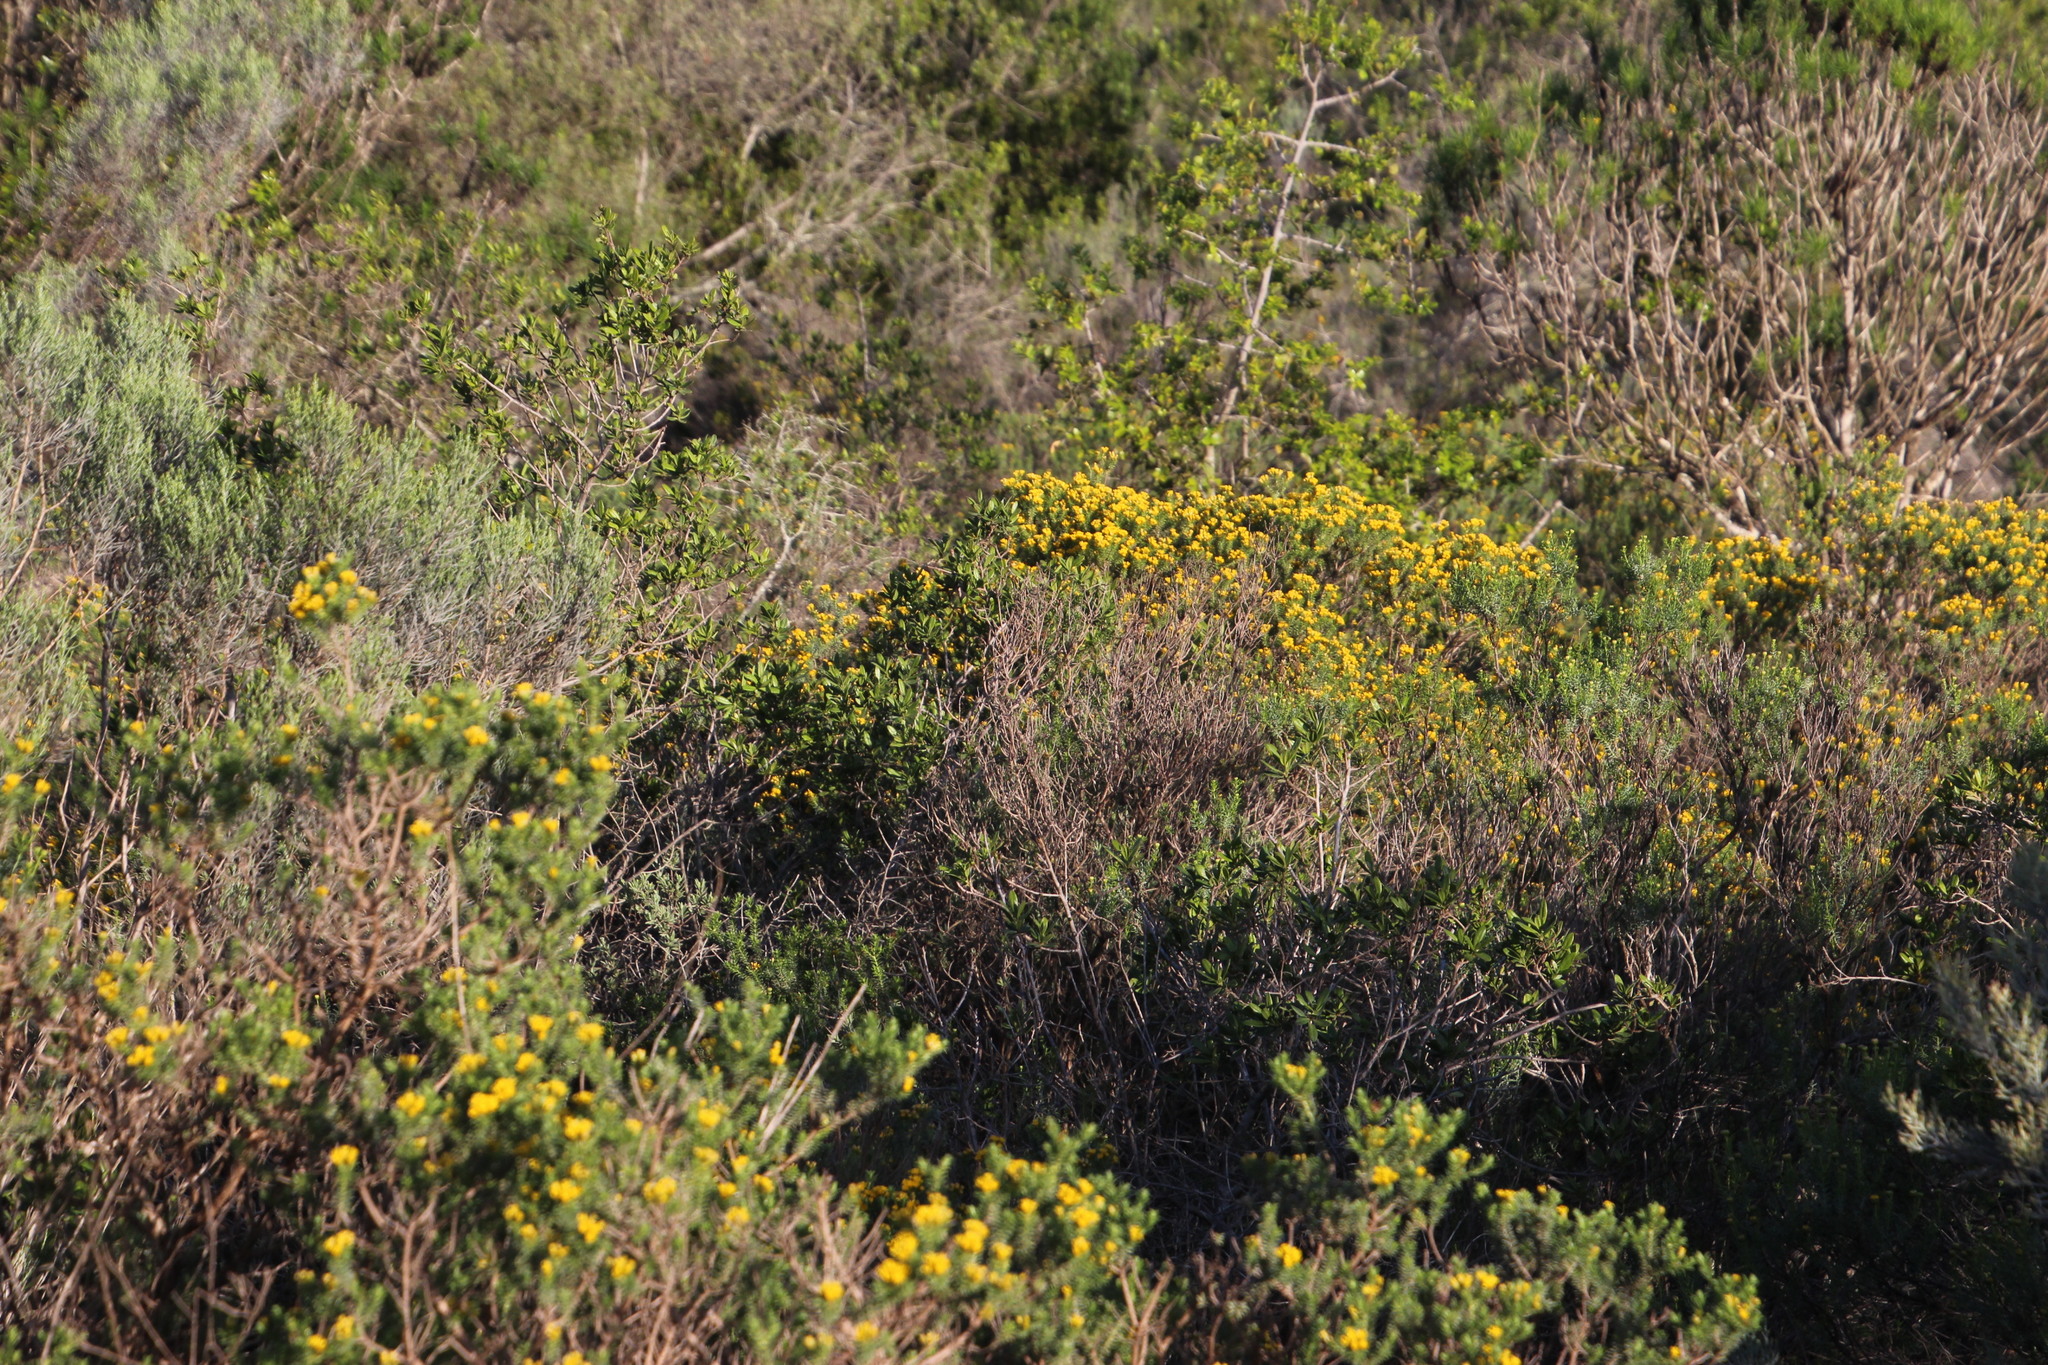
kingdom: Plantae
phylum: Tracheophyta
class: Magnoliopsida
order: Asterales
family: Asteraceae
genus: Oedera
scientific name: Oedera genistifolia
